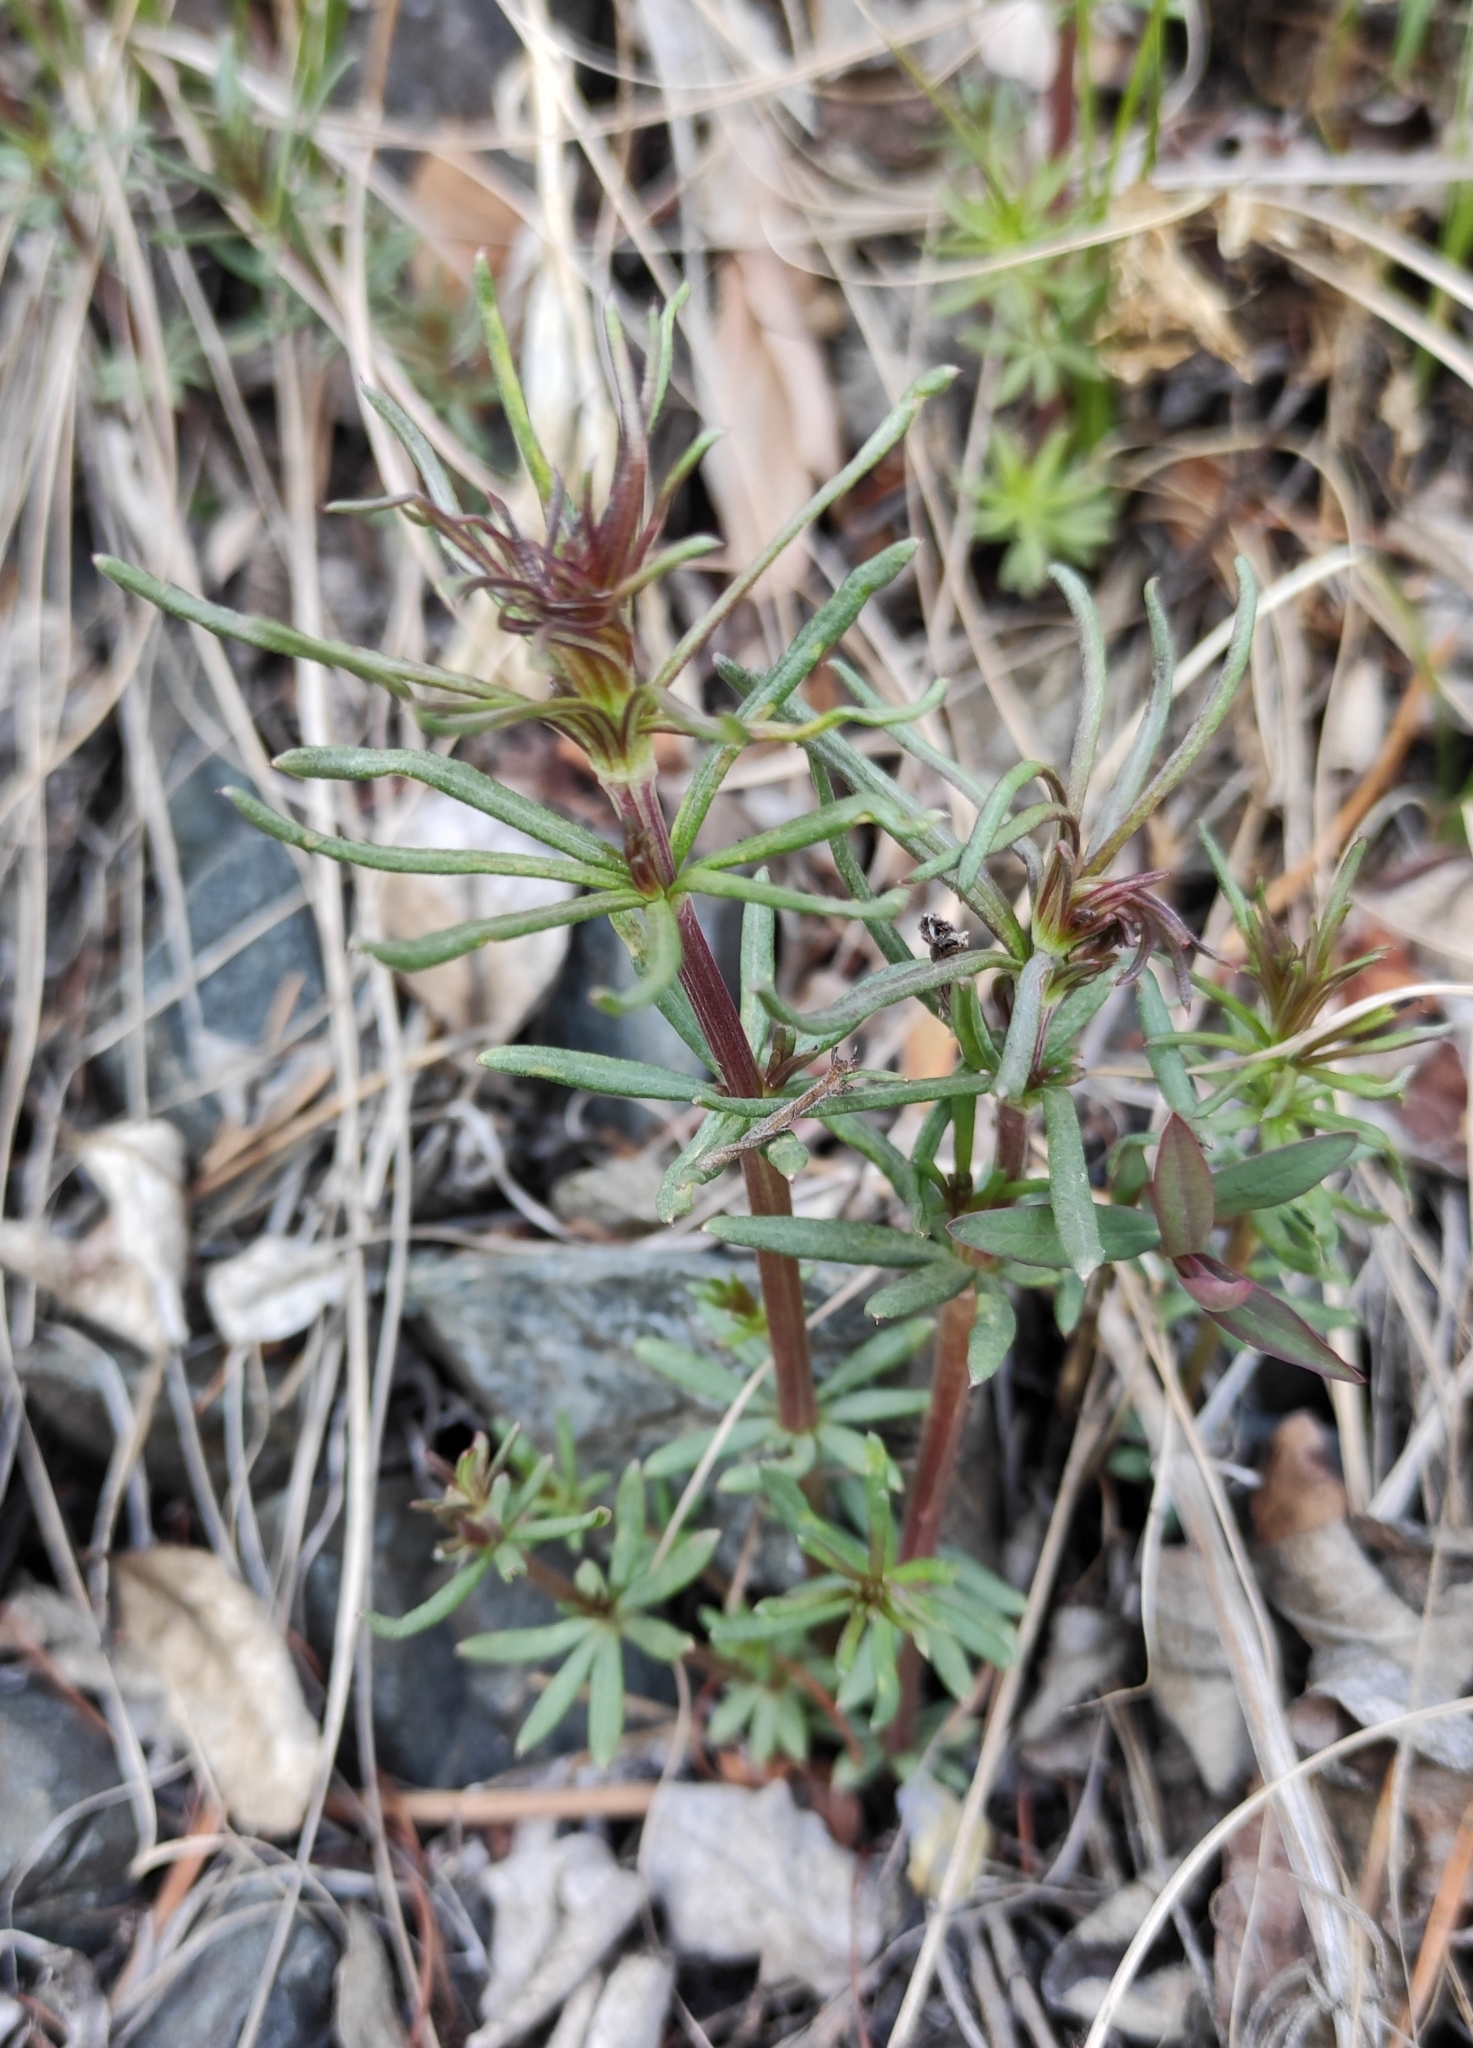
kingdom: Plantae
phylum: Tracheophyta
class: Magnoliopsida
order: Gentianales
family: Rubiaceae
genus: Galium
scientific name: Galium verum
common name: Lady's bedstraw
